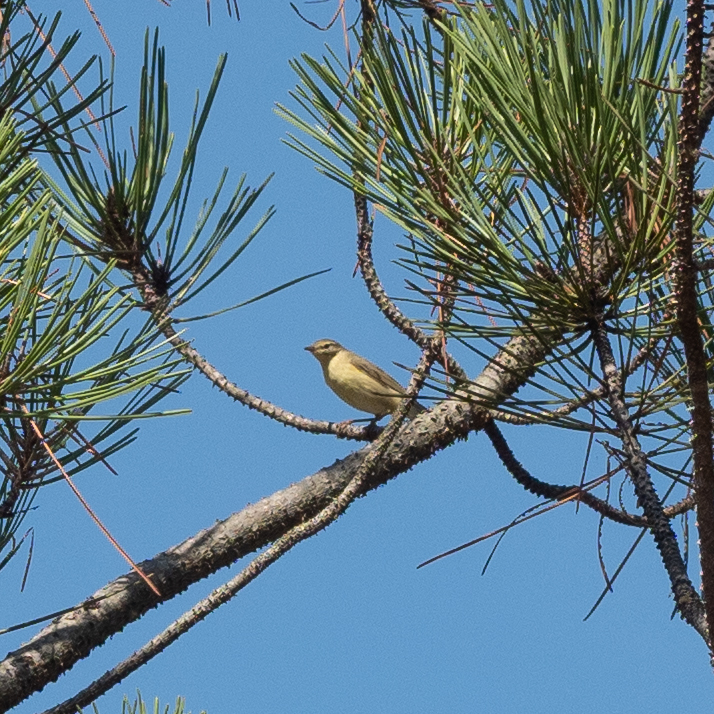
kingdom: Animalia
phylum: Chordata
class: Aves
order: Passeriformes
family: Phylloscopidae
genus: Phylloscopus
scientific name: Phylloscopus trochilus
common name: Willow warbler
